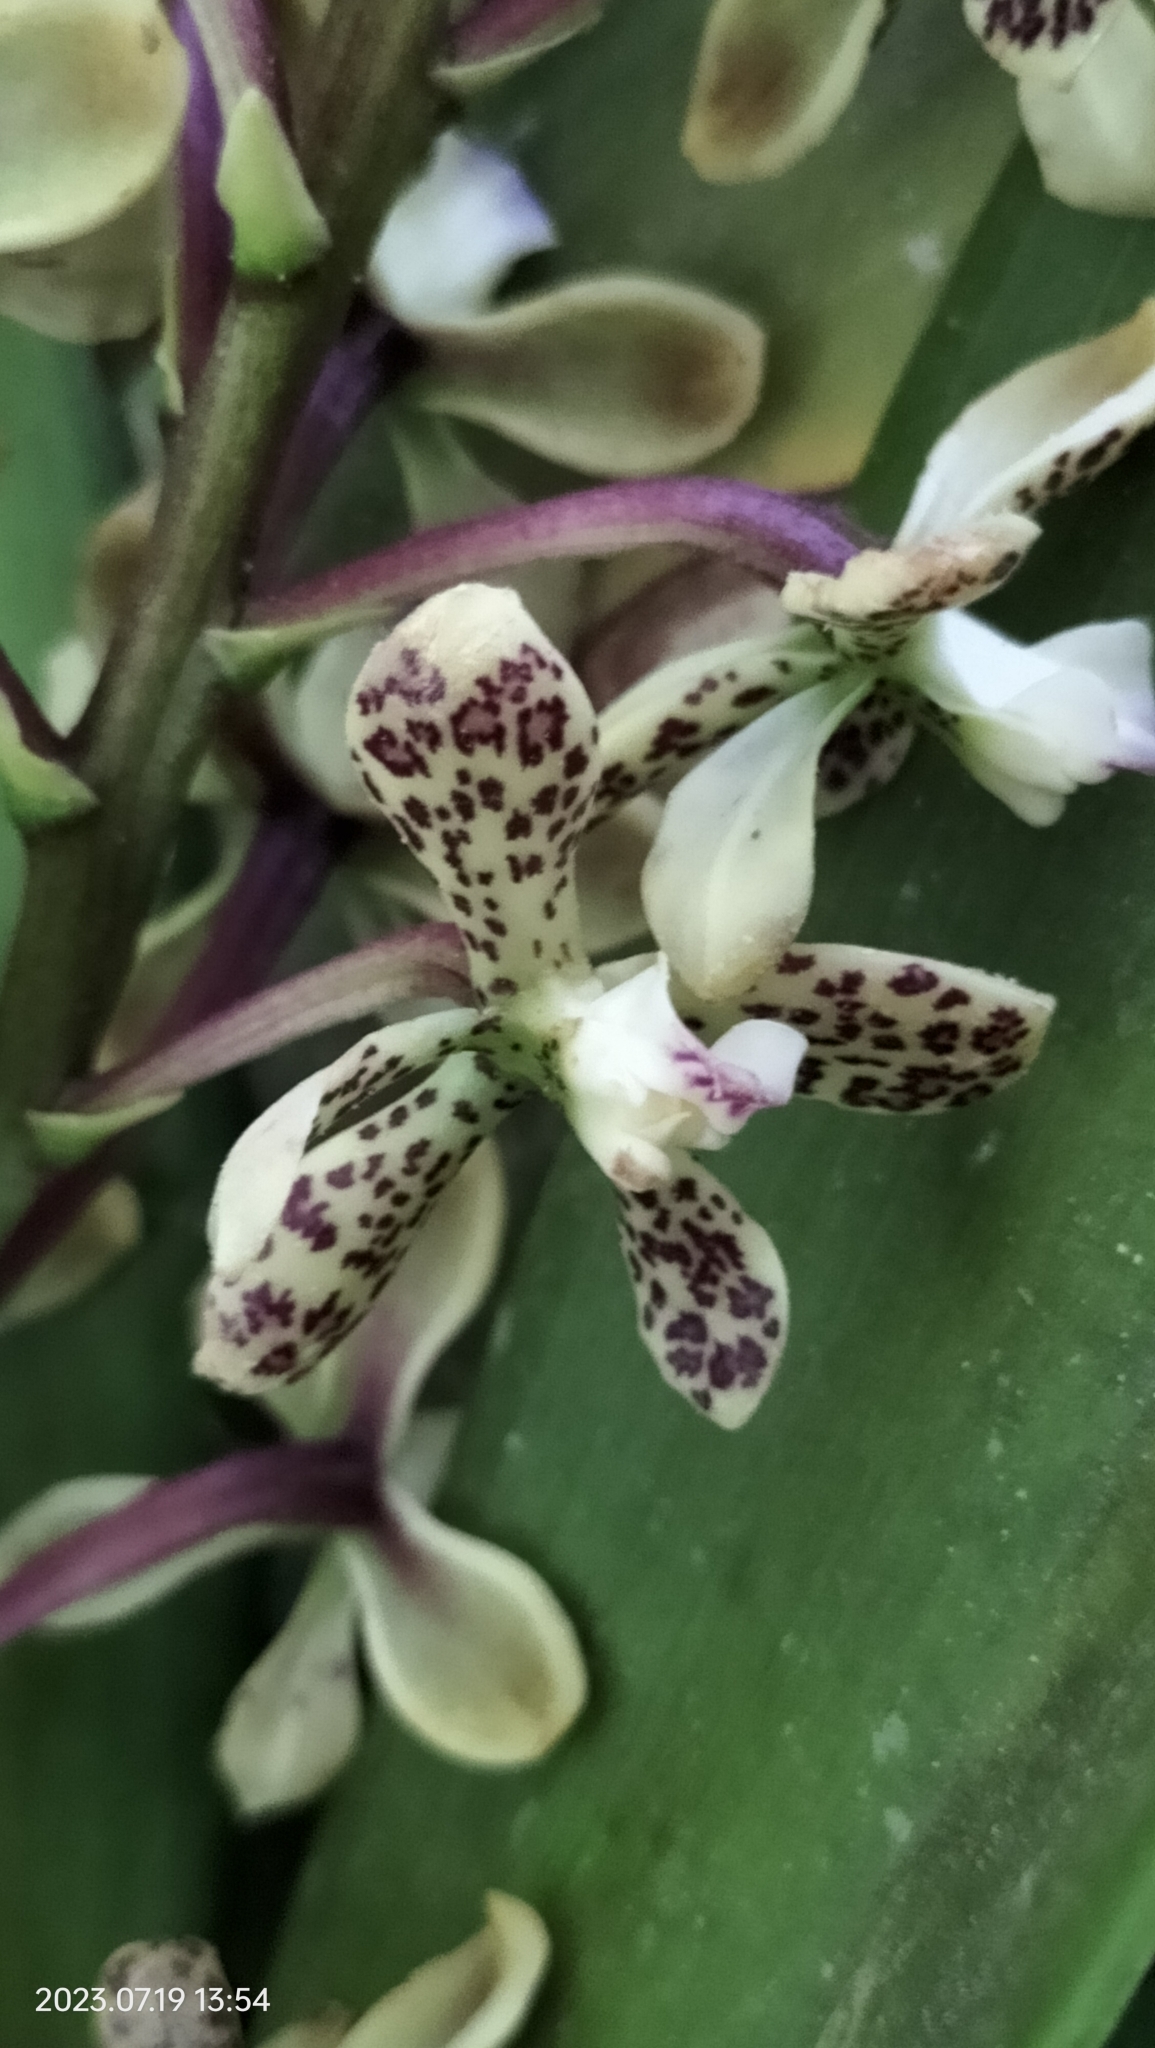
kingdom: Plantae
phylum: Tracheophyta
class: Liliopsida
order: Asparagales
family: Orchidaceae
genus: Prosthechea
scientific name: Prosthechea crassilabia
